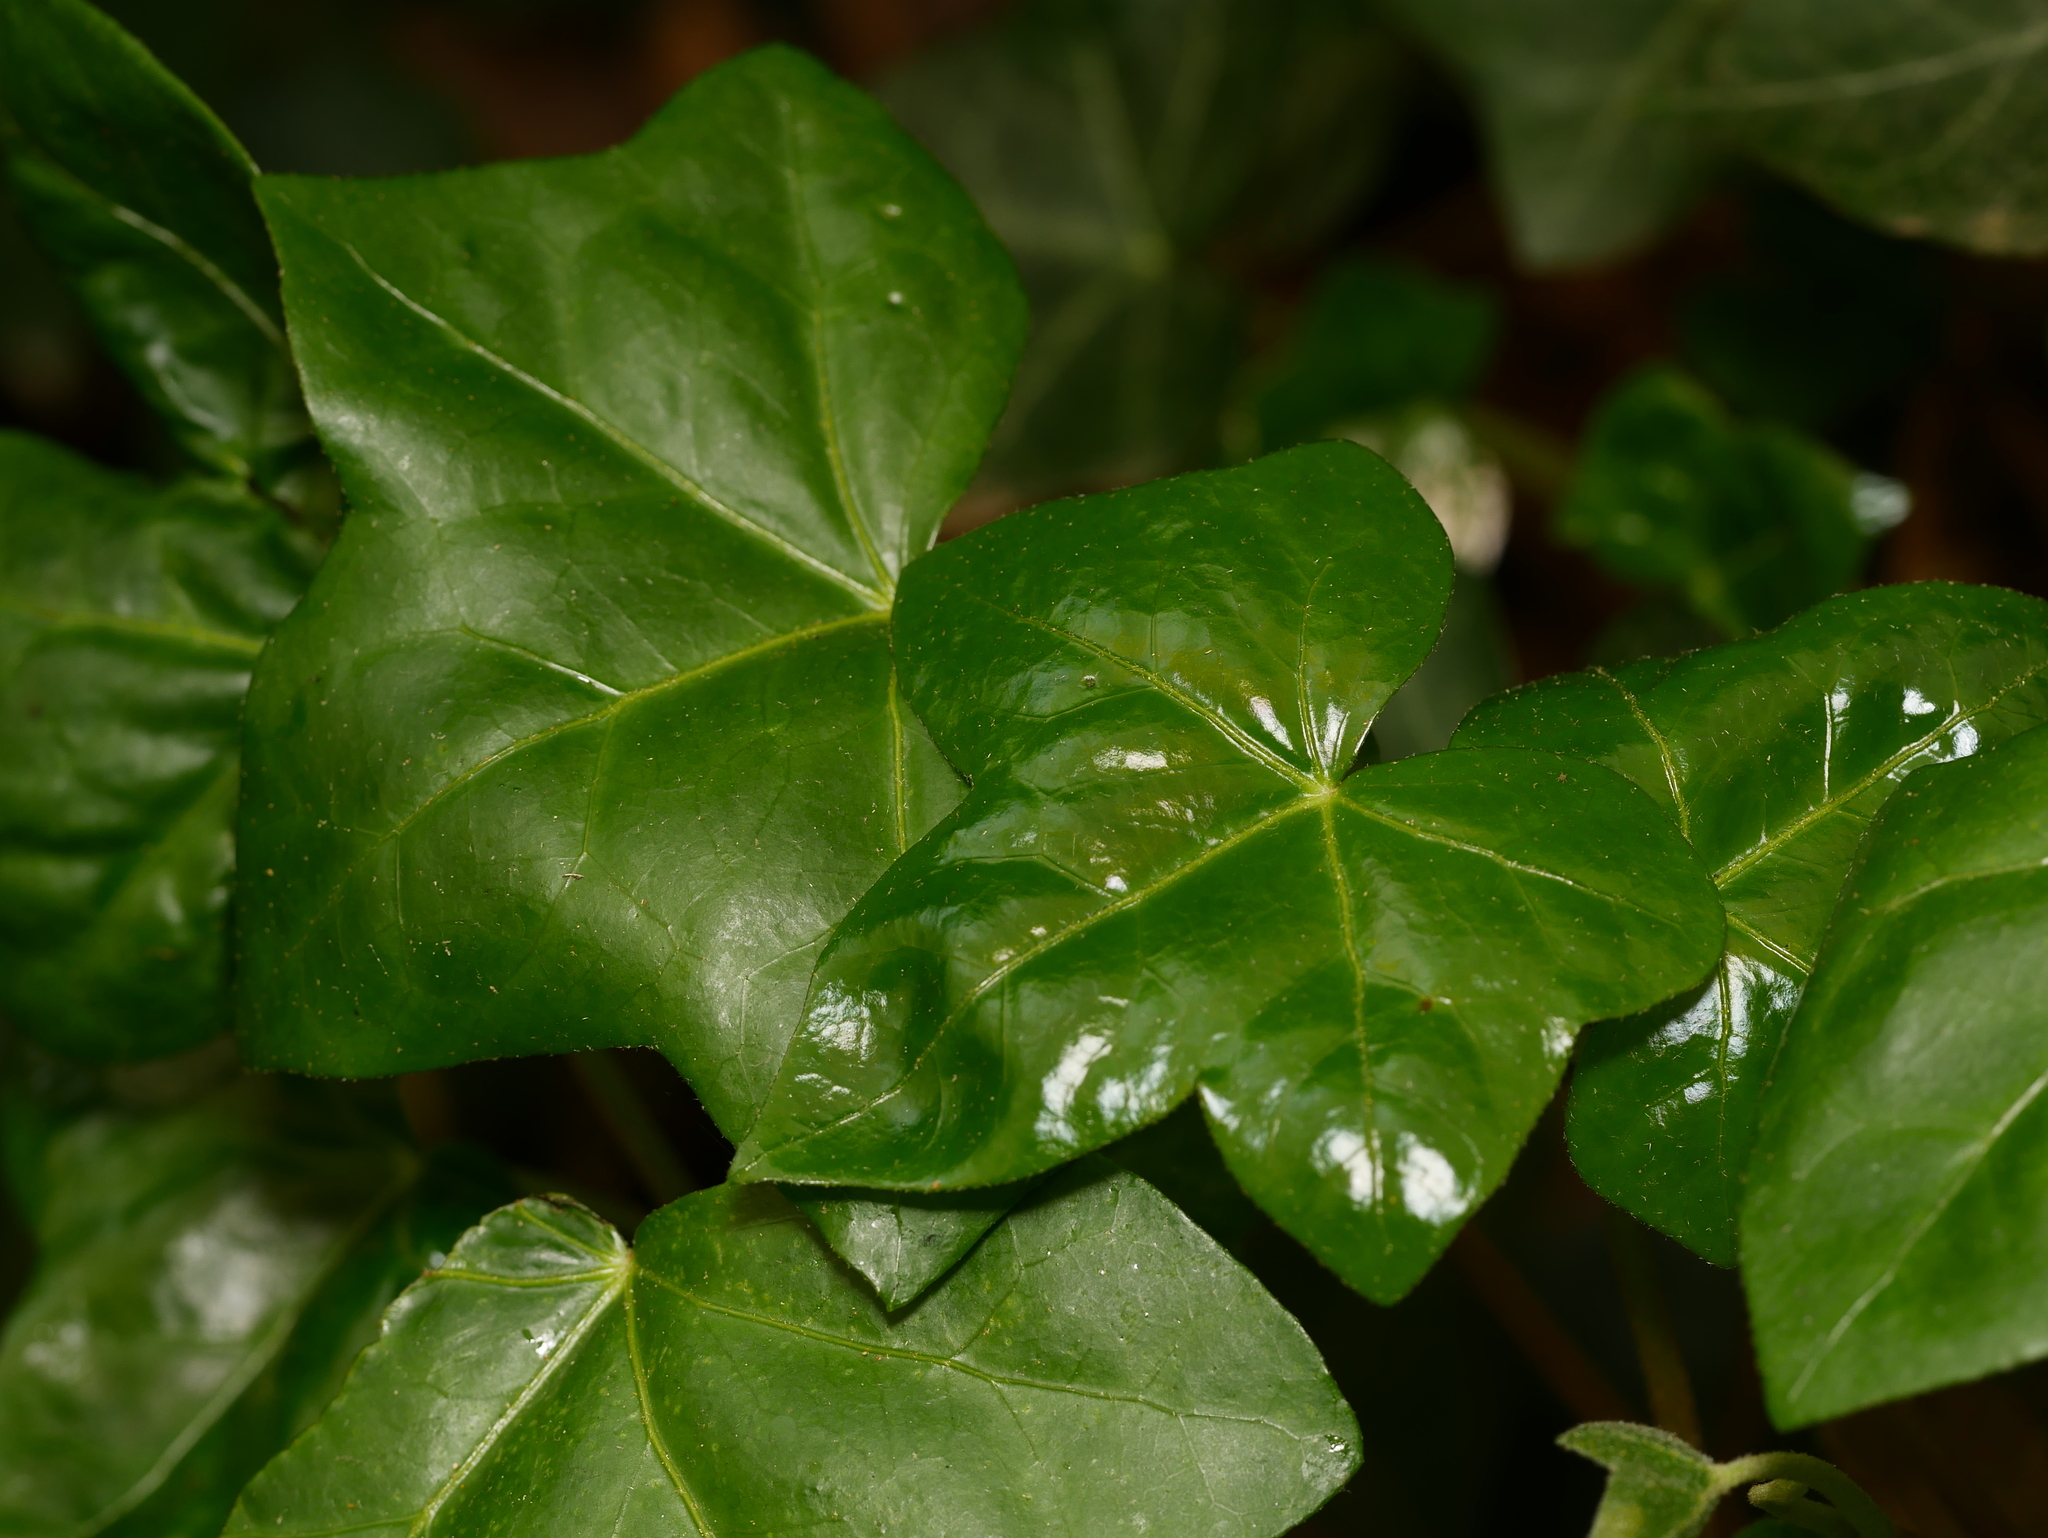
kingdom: Plantae
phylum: Tracheophyta
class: Magnoliopsida
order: Apiales
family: Araliaceae
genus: Hedera
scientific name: Hedera helix
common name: Ivy
